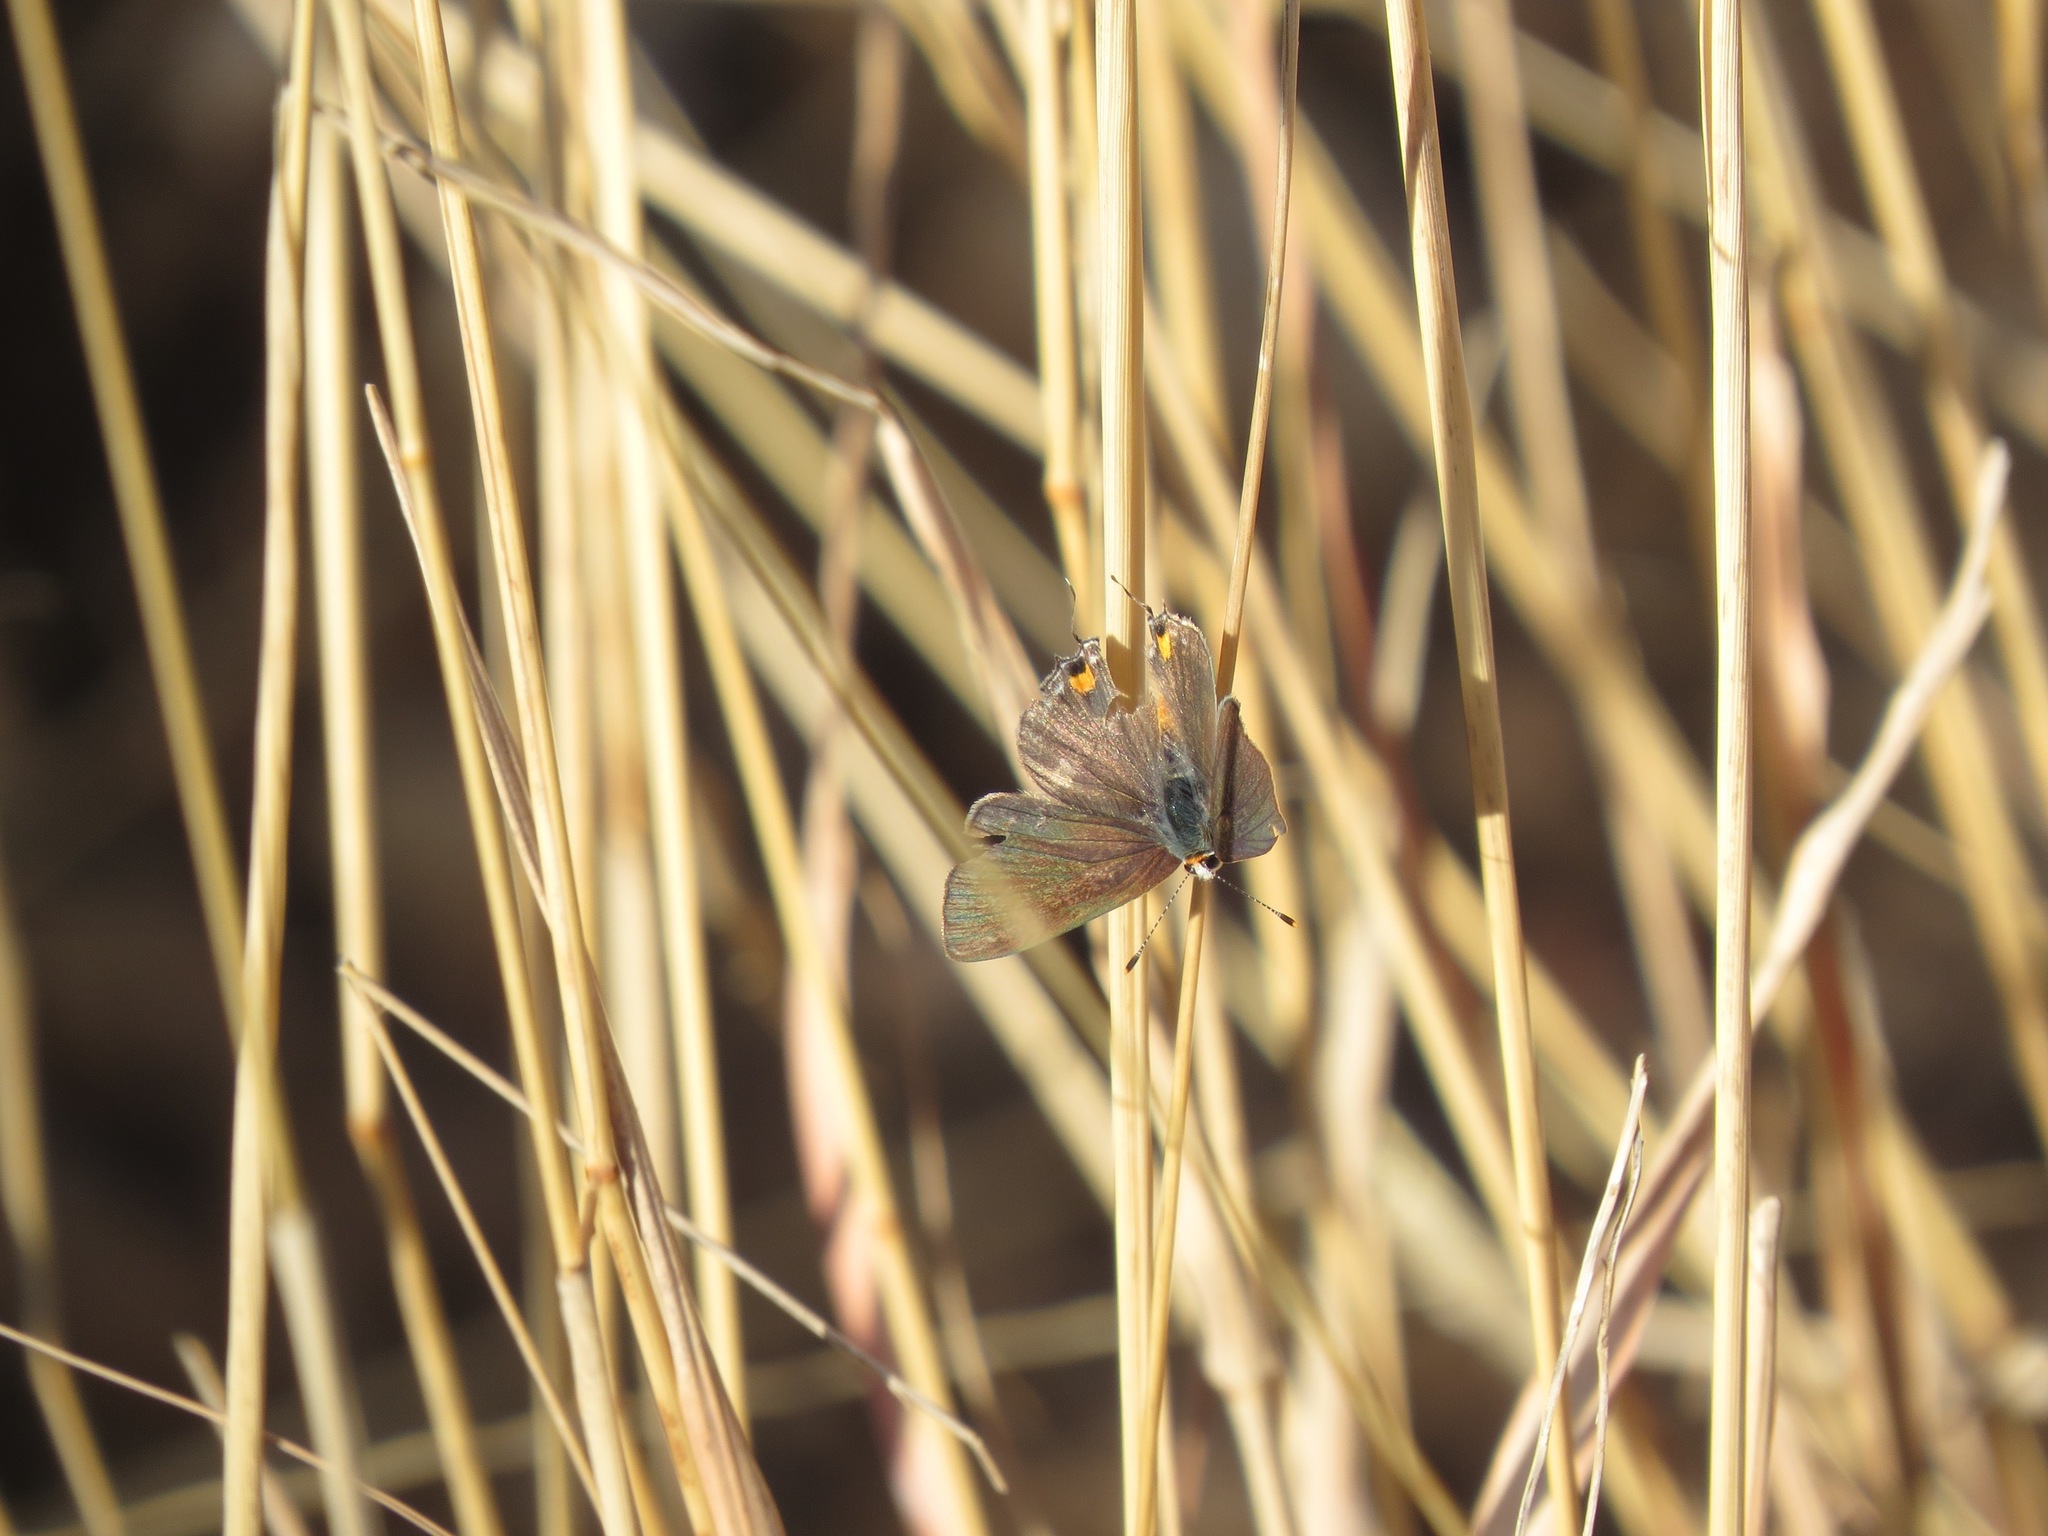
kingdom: Animalia
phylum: Arthropoda
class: Insecta
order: Lepidoptera
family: Lycaenidae
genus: Strymon
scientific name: Strymon melinus
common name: Gray hairstreak
